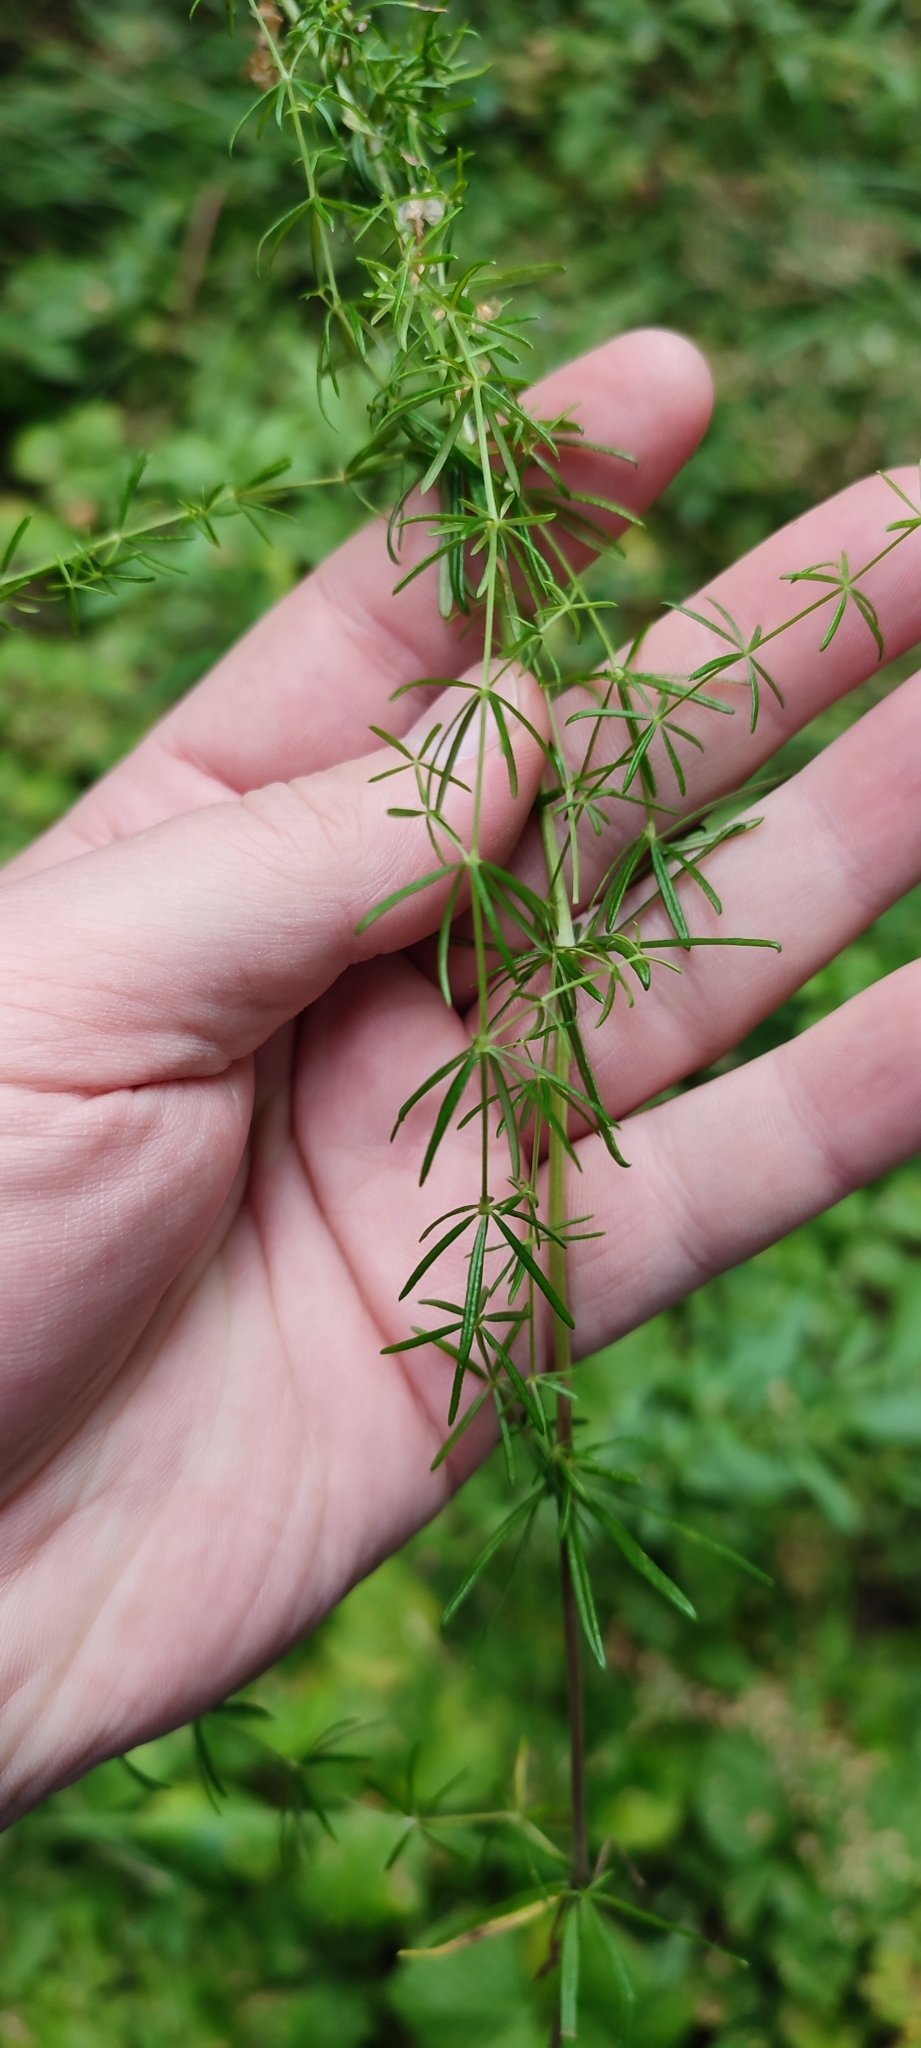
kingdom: Plantae
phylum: Tracheophyta
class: Magnoliopsida
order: Gentianales
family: Rubiaceae
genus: Galium
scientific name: Galium verum
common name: Lady's bedstraw
